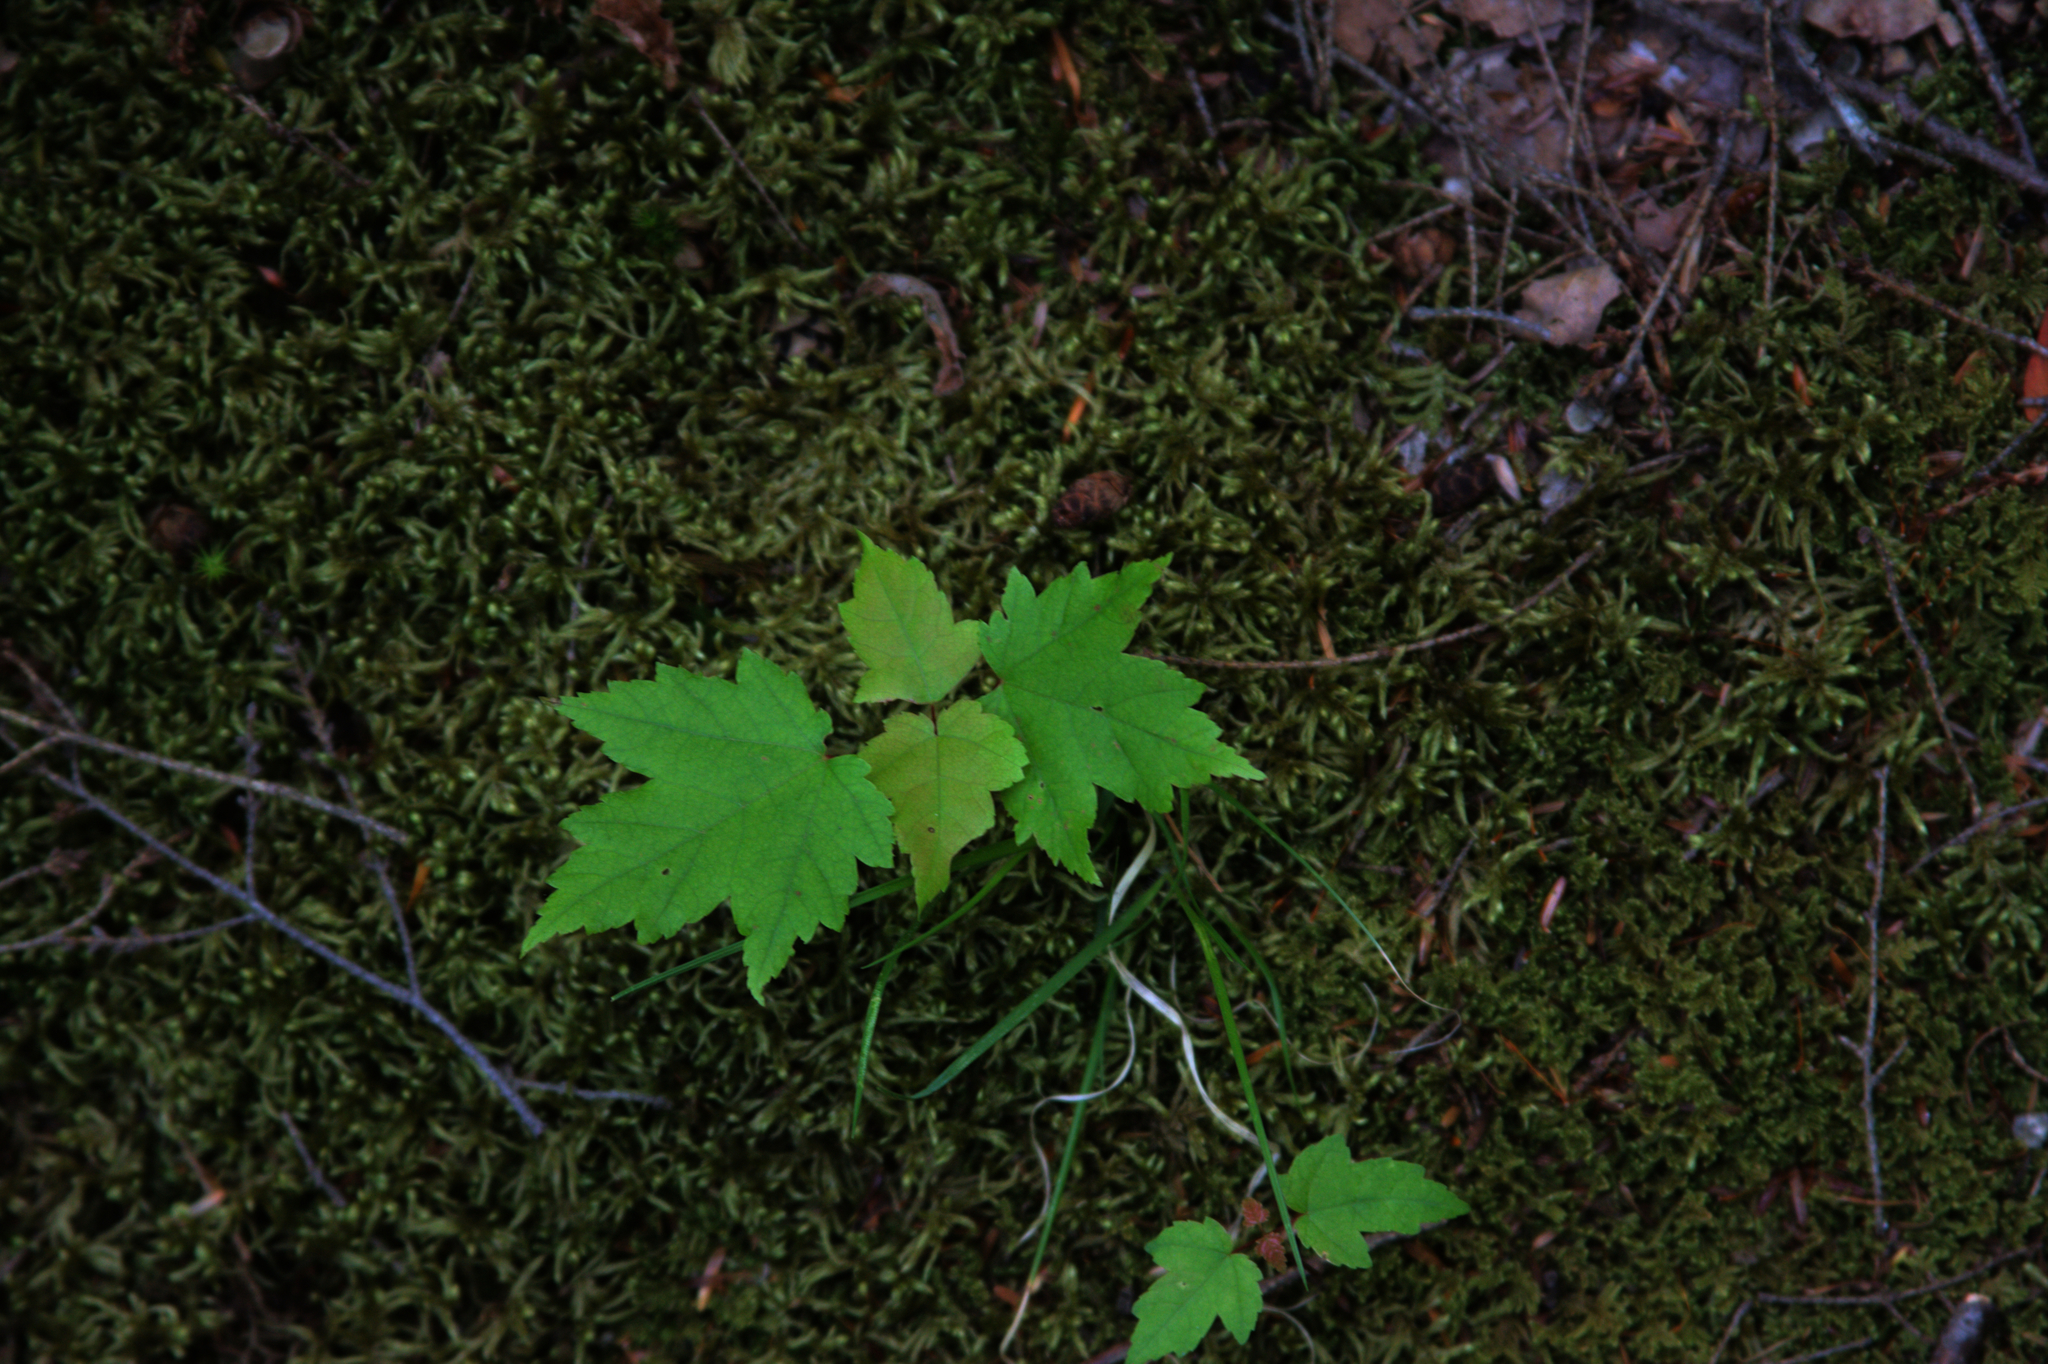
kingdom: Plantae
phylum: Tracheophyta
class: Magnoliopsida
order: Sapindales
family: Sapindaceae
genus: Acer
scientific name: Acer rubrum
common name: Red maple
